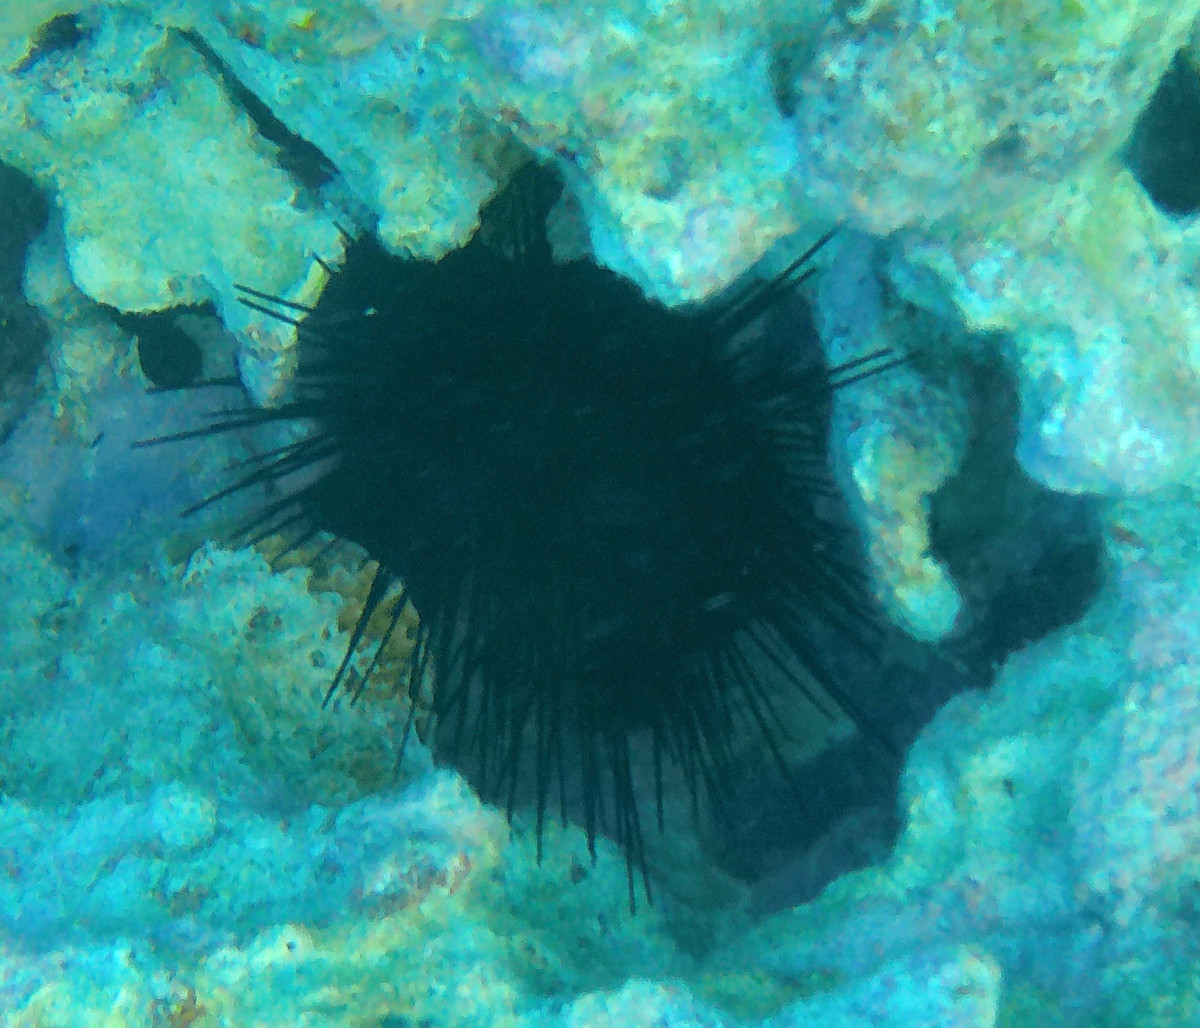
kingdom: Animalia
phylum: Echinodermata
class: Echinoidea
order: Diadematoida
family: Diadematidae
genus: Diadema
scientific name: Diadema antillarum
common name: Spiny urchin
